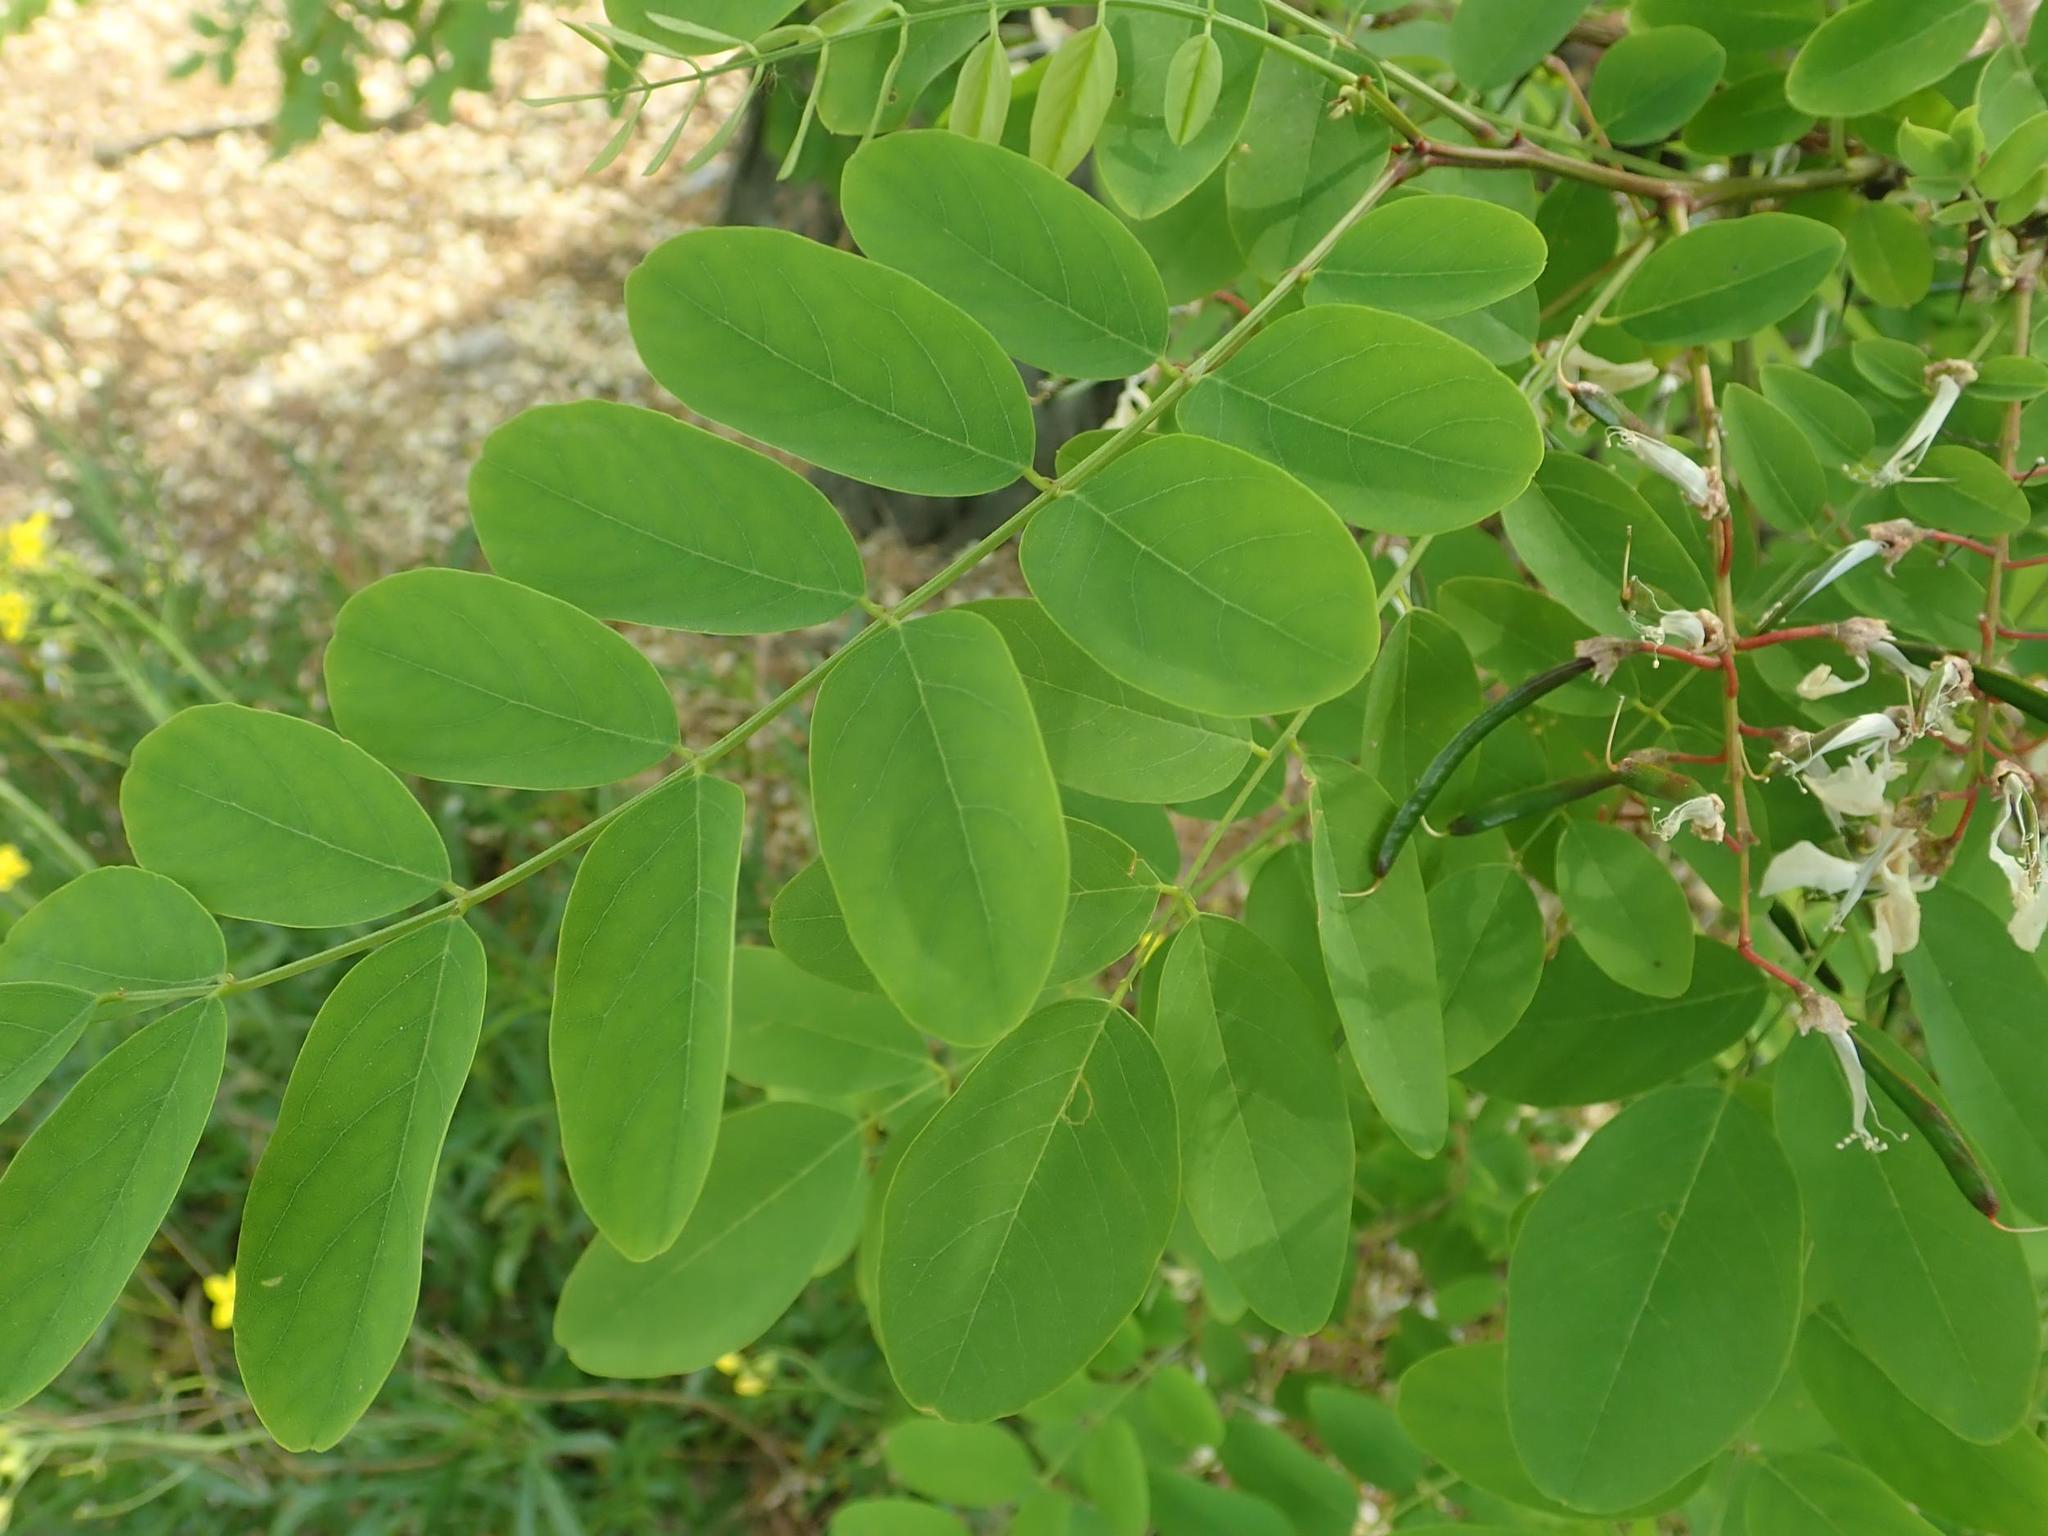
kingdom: Plantae
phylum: Tracheophyta
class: Magnoliopsida
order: Fabales
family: Fabaceae
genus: Robinia
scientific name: Robinia pseudoacacia
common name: Black locust
